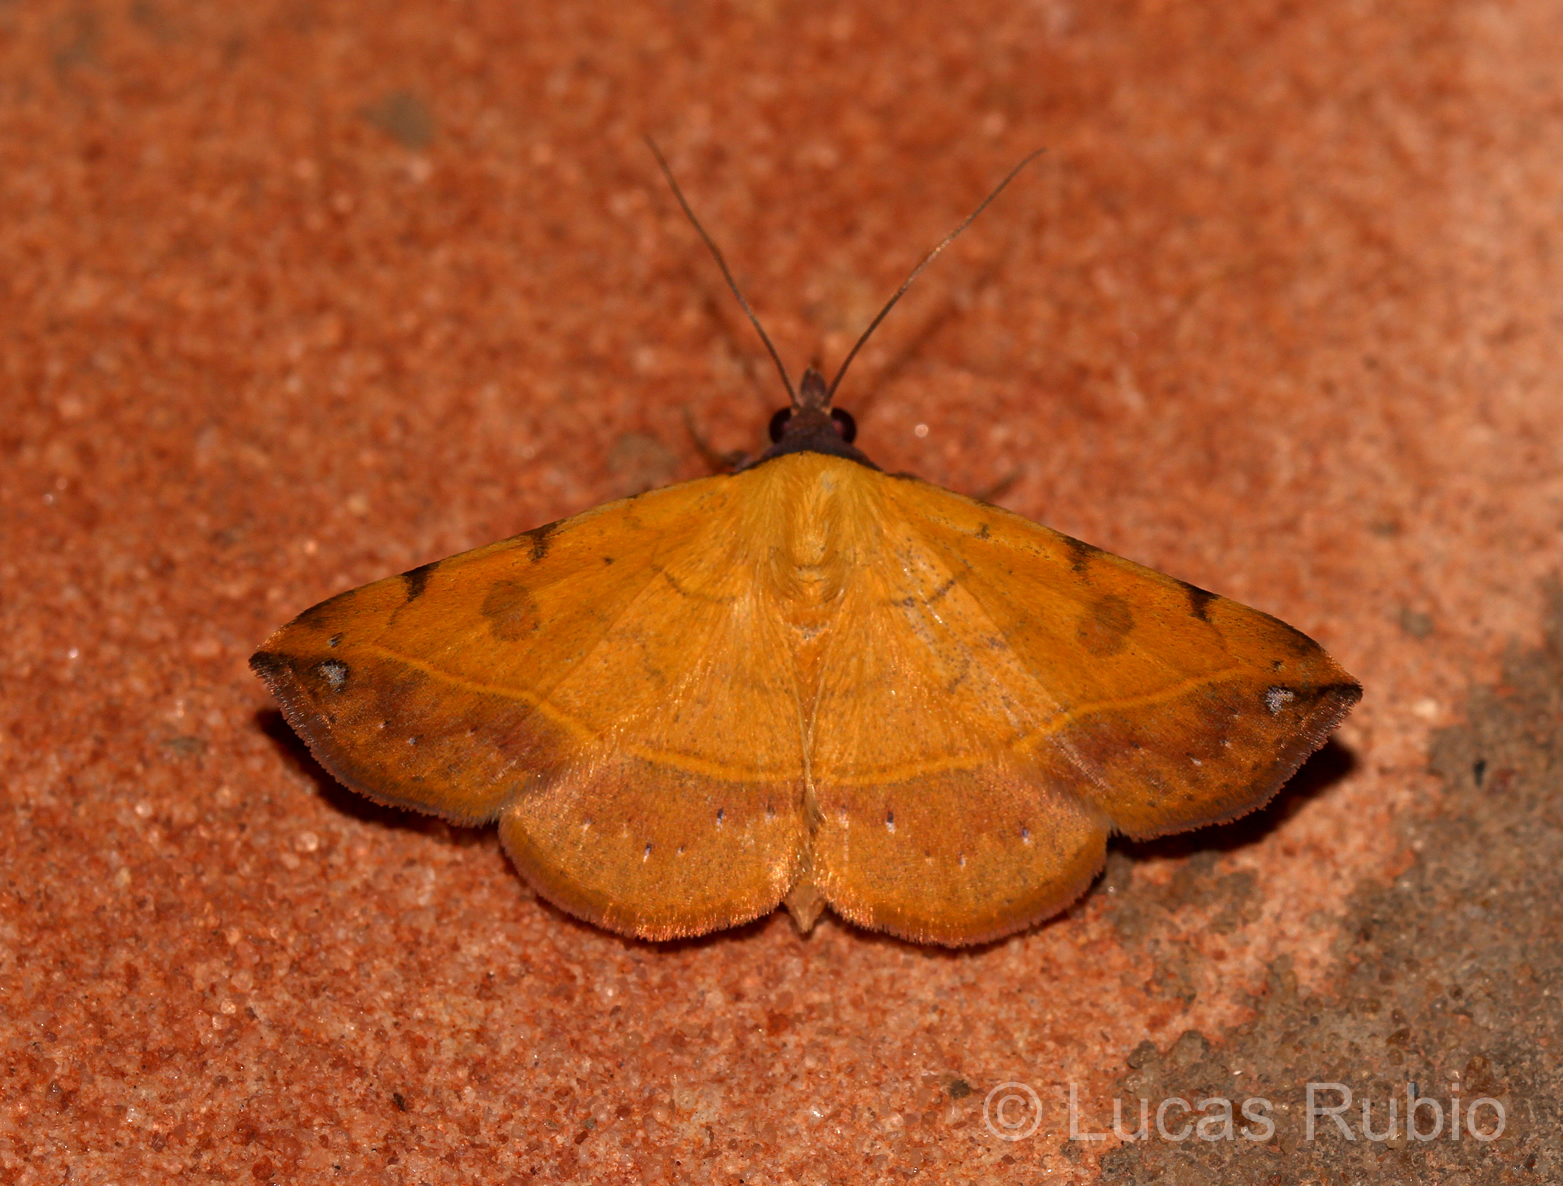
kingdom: Animalia
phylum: Arthropoda
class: Insecta
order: Lepidoptera
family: Erebidae
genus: Hemeroplanis
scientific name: Hemeroplanis scopulepes
